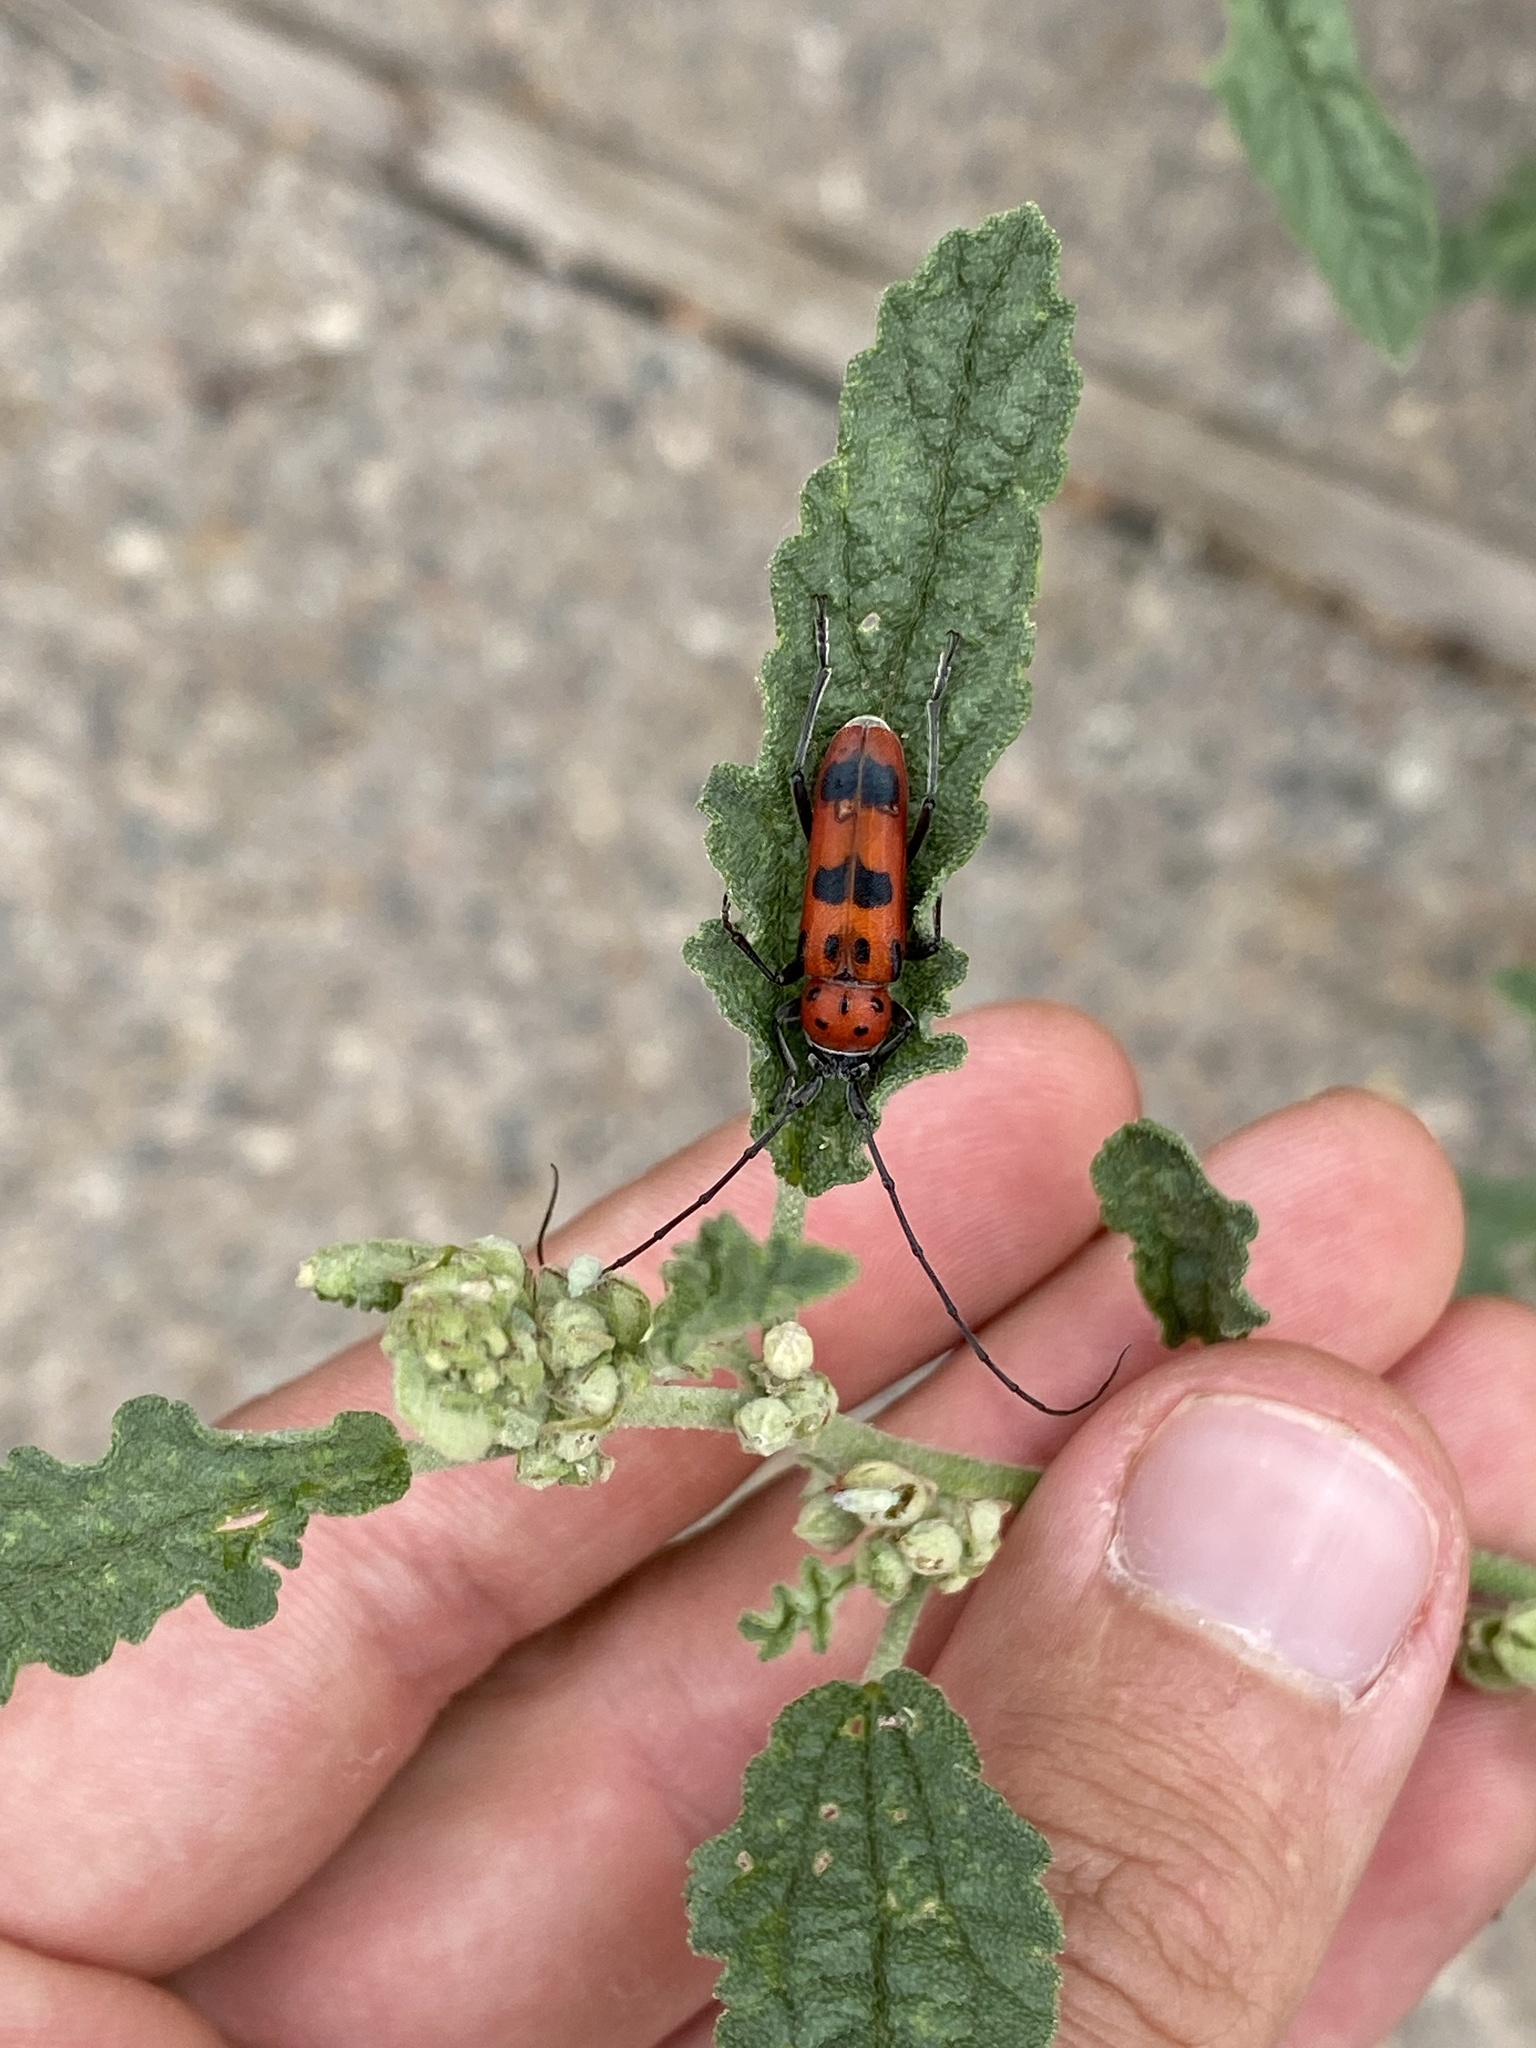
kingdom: Animalia
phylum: Arthropoda
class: Insecta
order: Coleoptera
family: Cerambycidae
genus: Tylosis
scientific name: Tylosis maculatus
